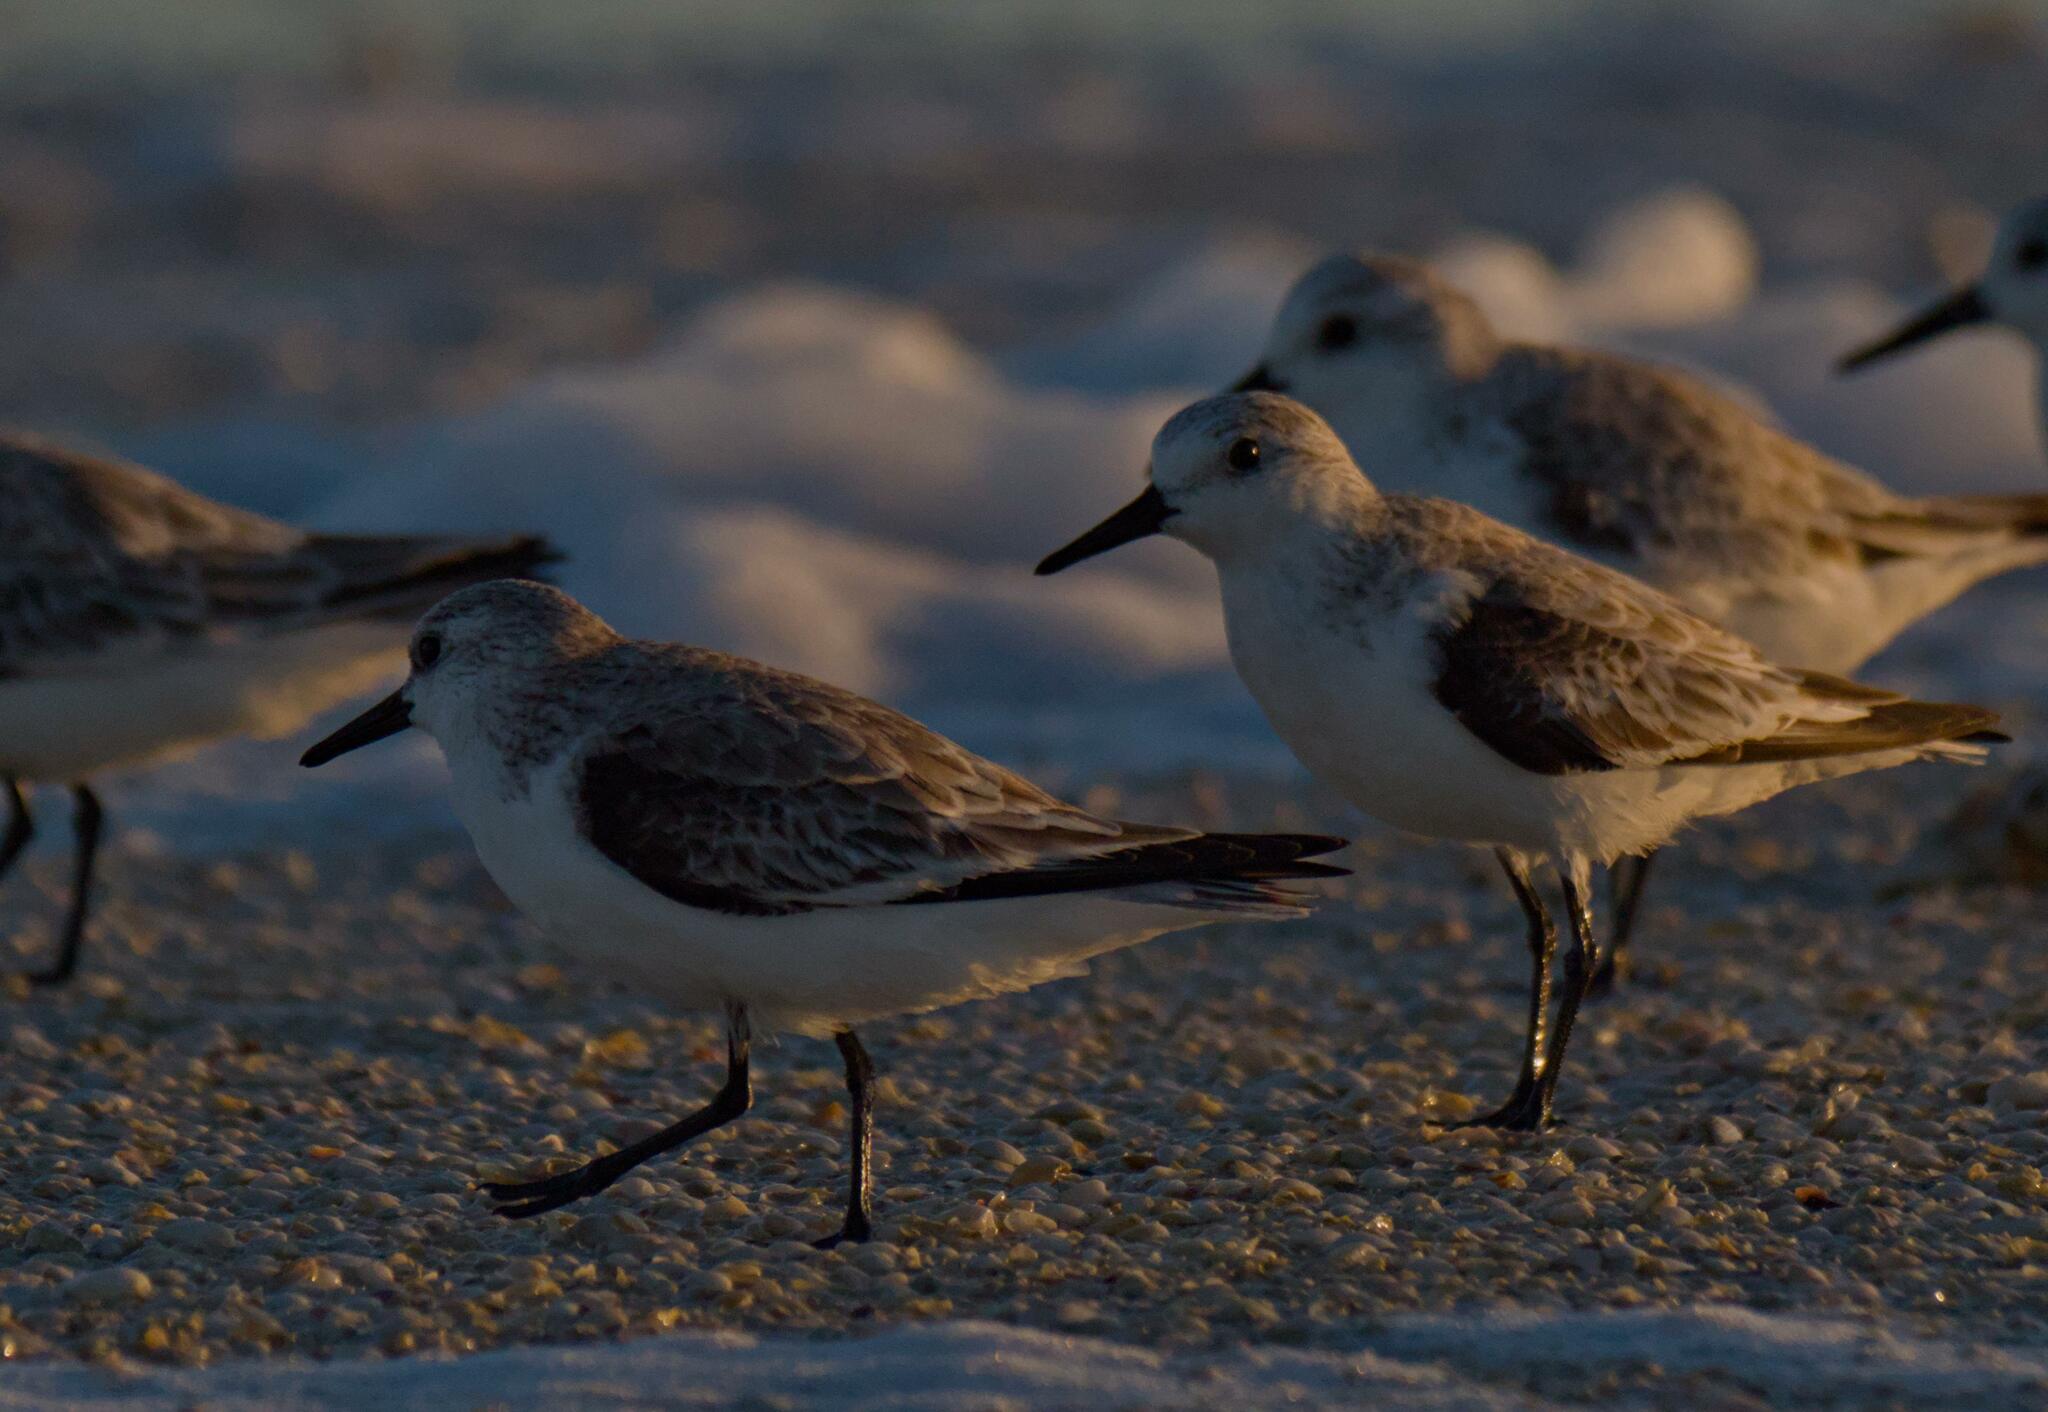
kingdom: Animalia
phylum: Chordata
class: Aves
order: Charadriiformes
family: Scolopacidae
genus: Calidris
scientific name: Calidris alba
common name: Sanderling
